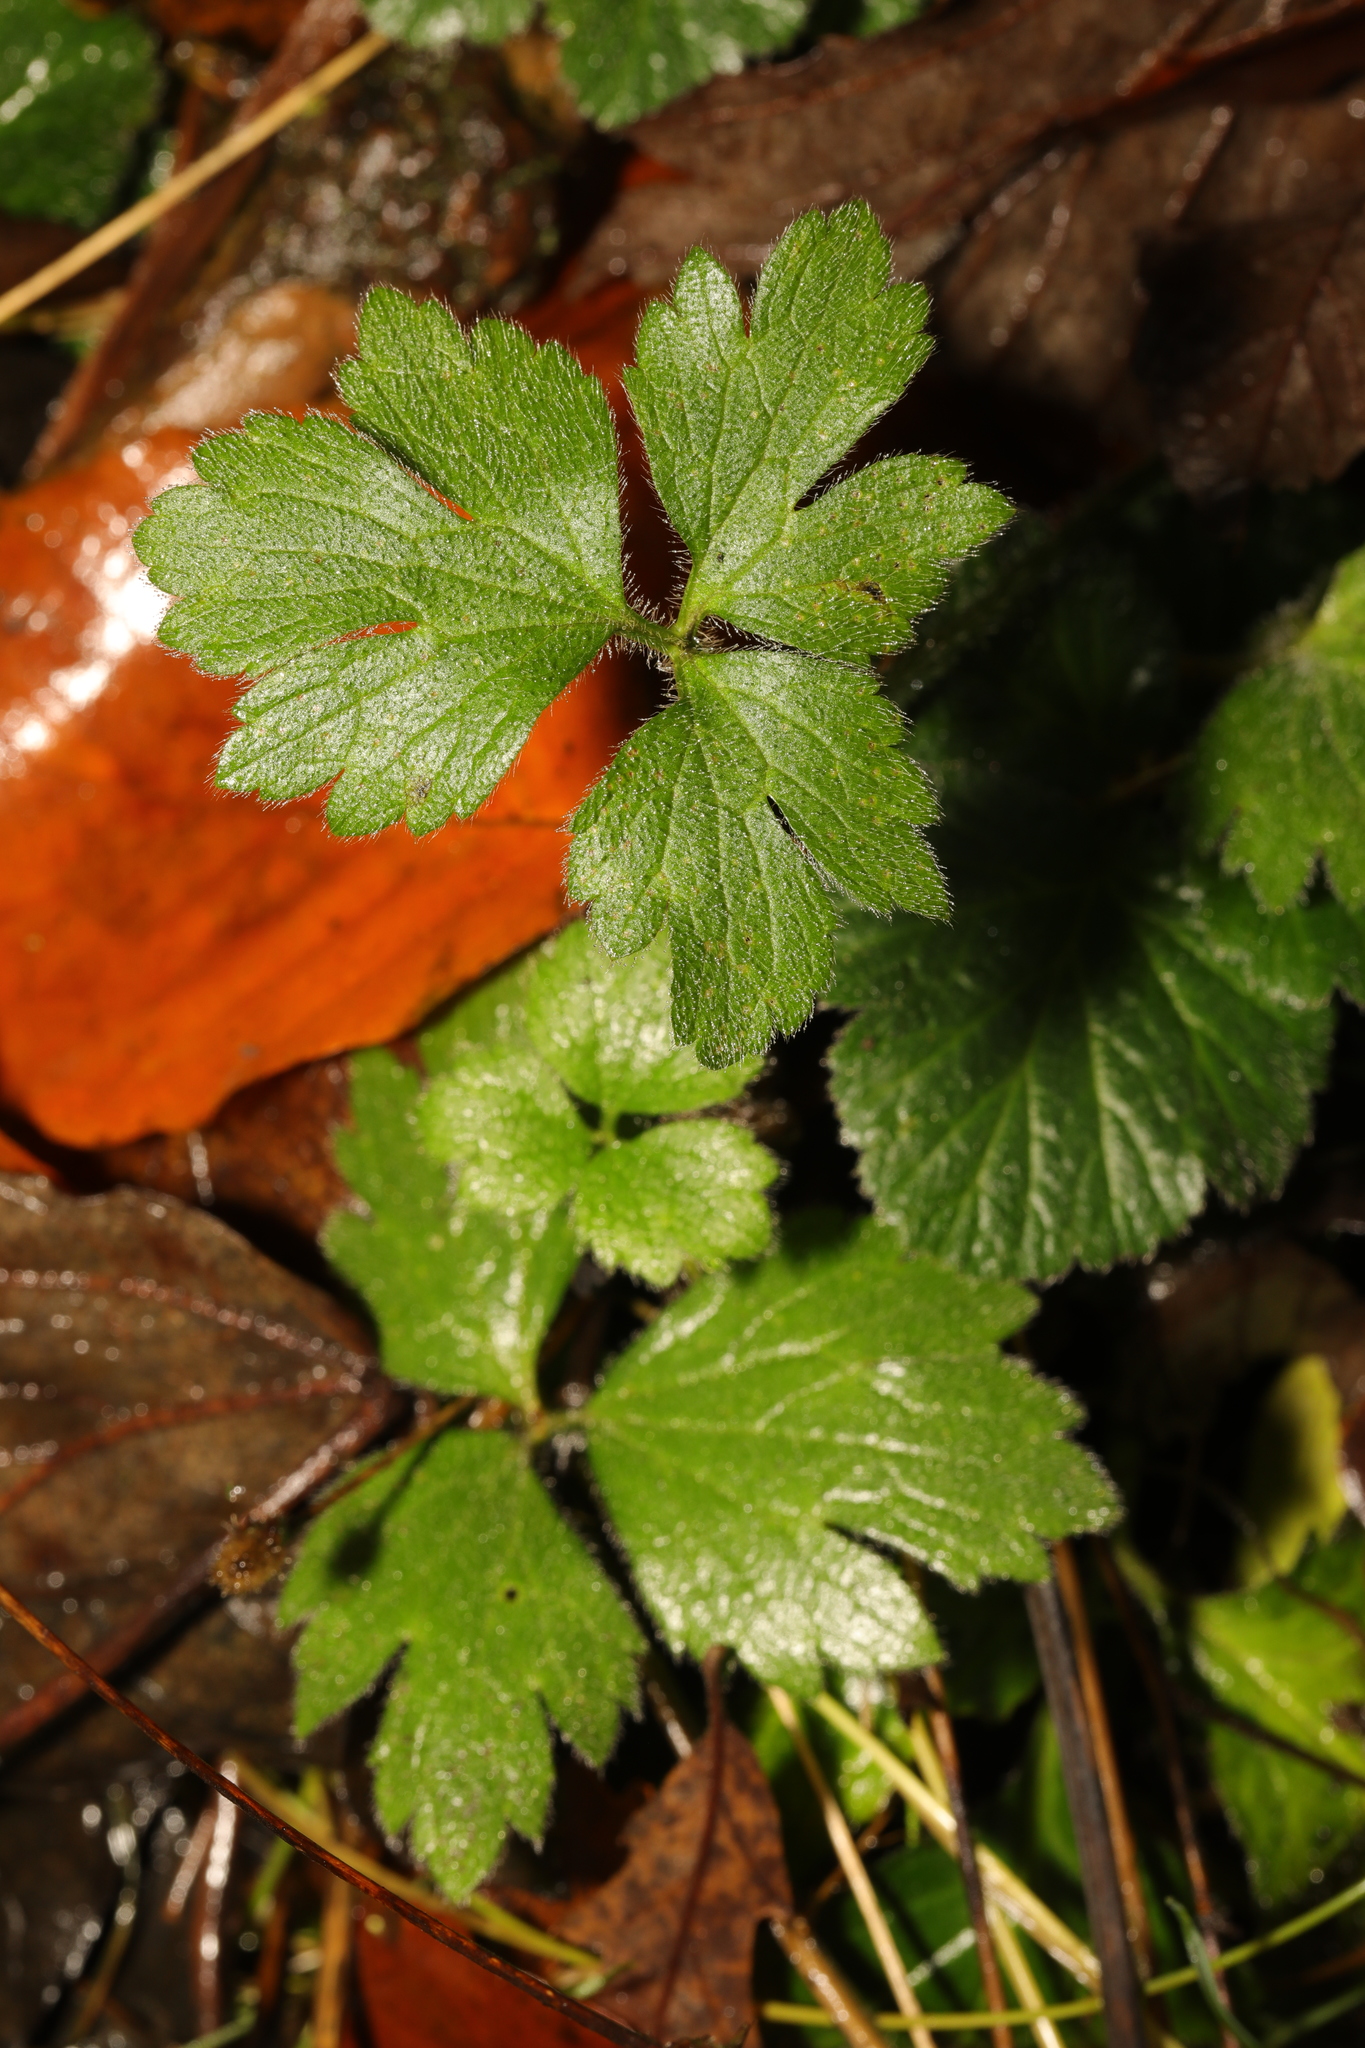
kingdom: Plantae
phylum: Tracheophyta
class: Magnoliopsida
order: Ranunculales
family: Ranunculaceae
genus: Ranunculus
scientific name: Ranunculus repens
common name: Creeping buttercup
